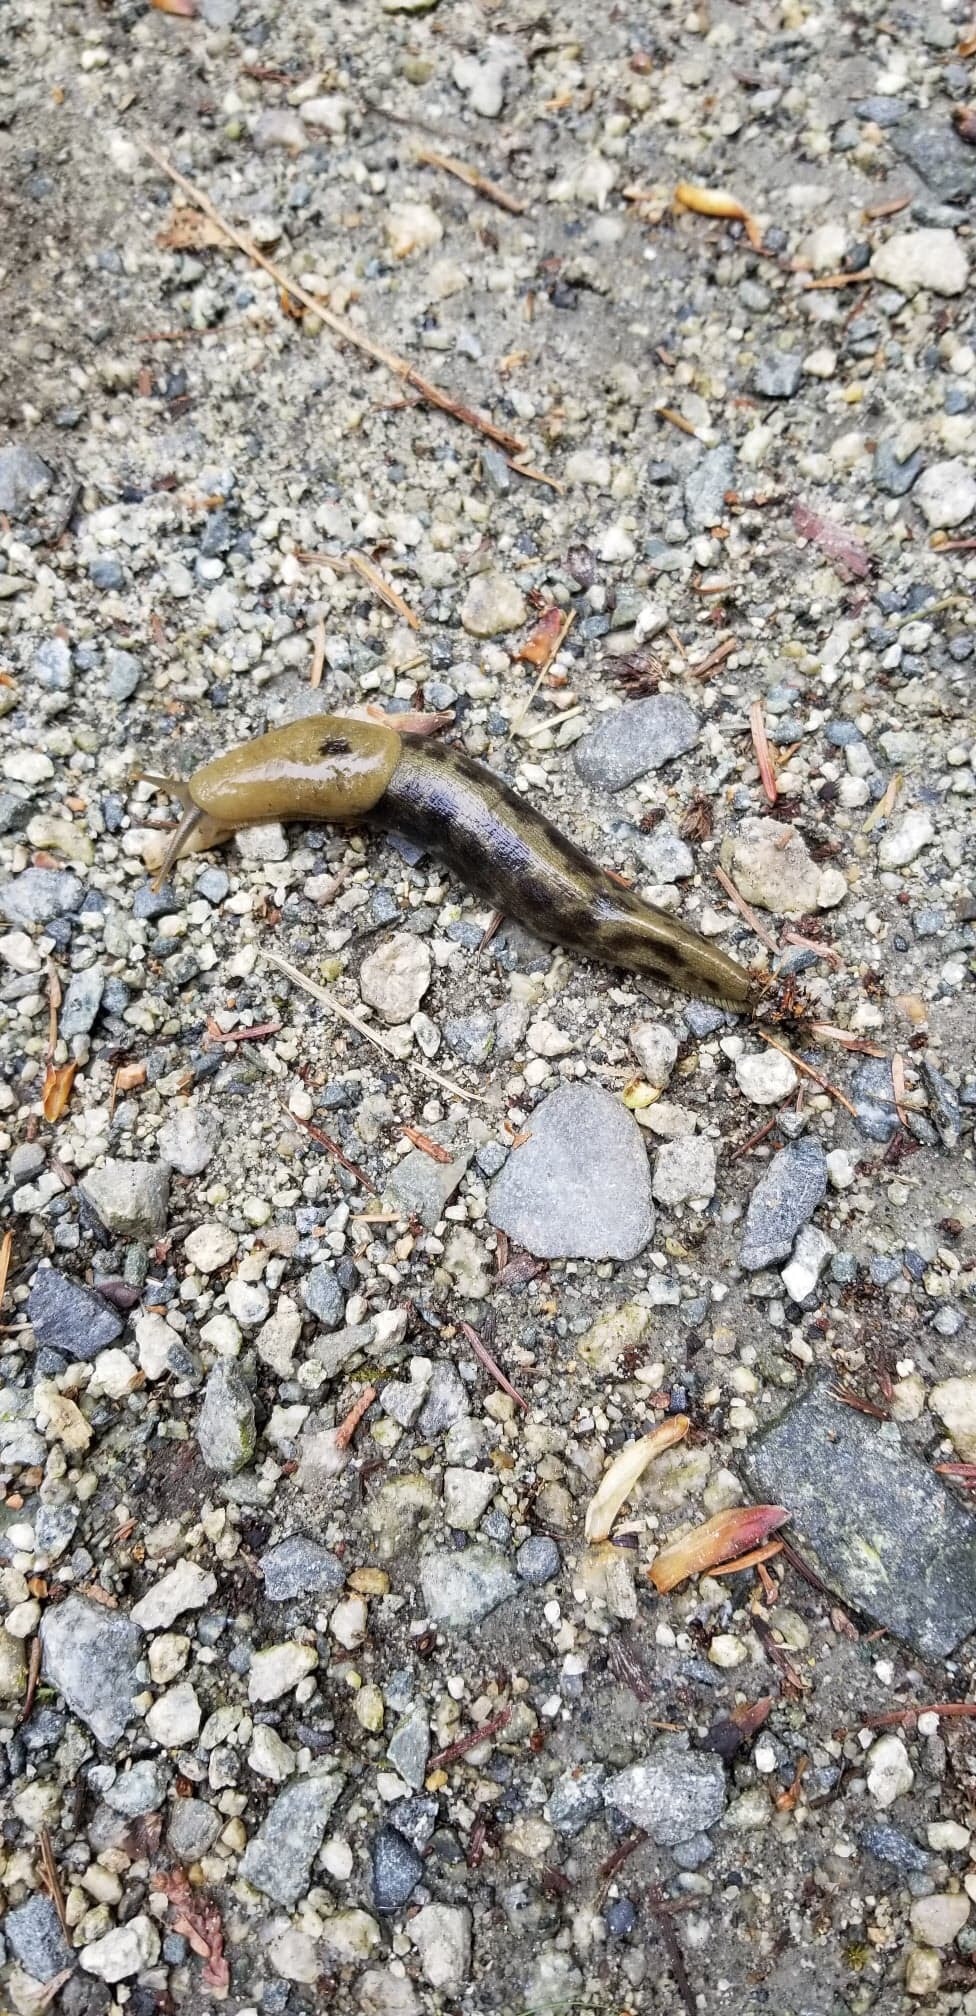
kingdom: Animalia
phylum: Mollusca
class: Gastropoda
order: Stylommatophora
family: Ariolimacidae
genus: Ariolimax
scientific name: Ariolimax columbianus
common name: Pacific banana slug
